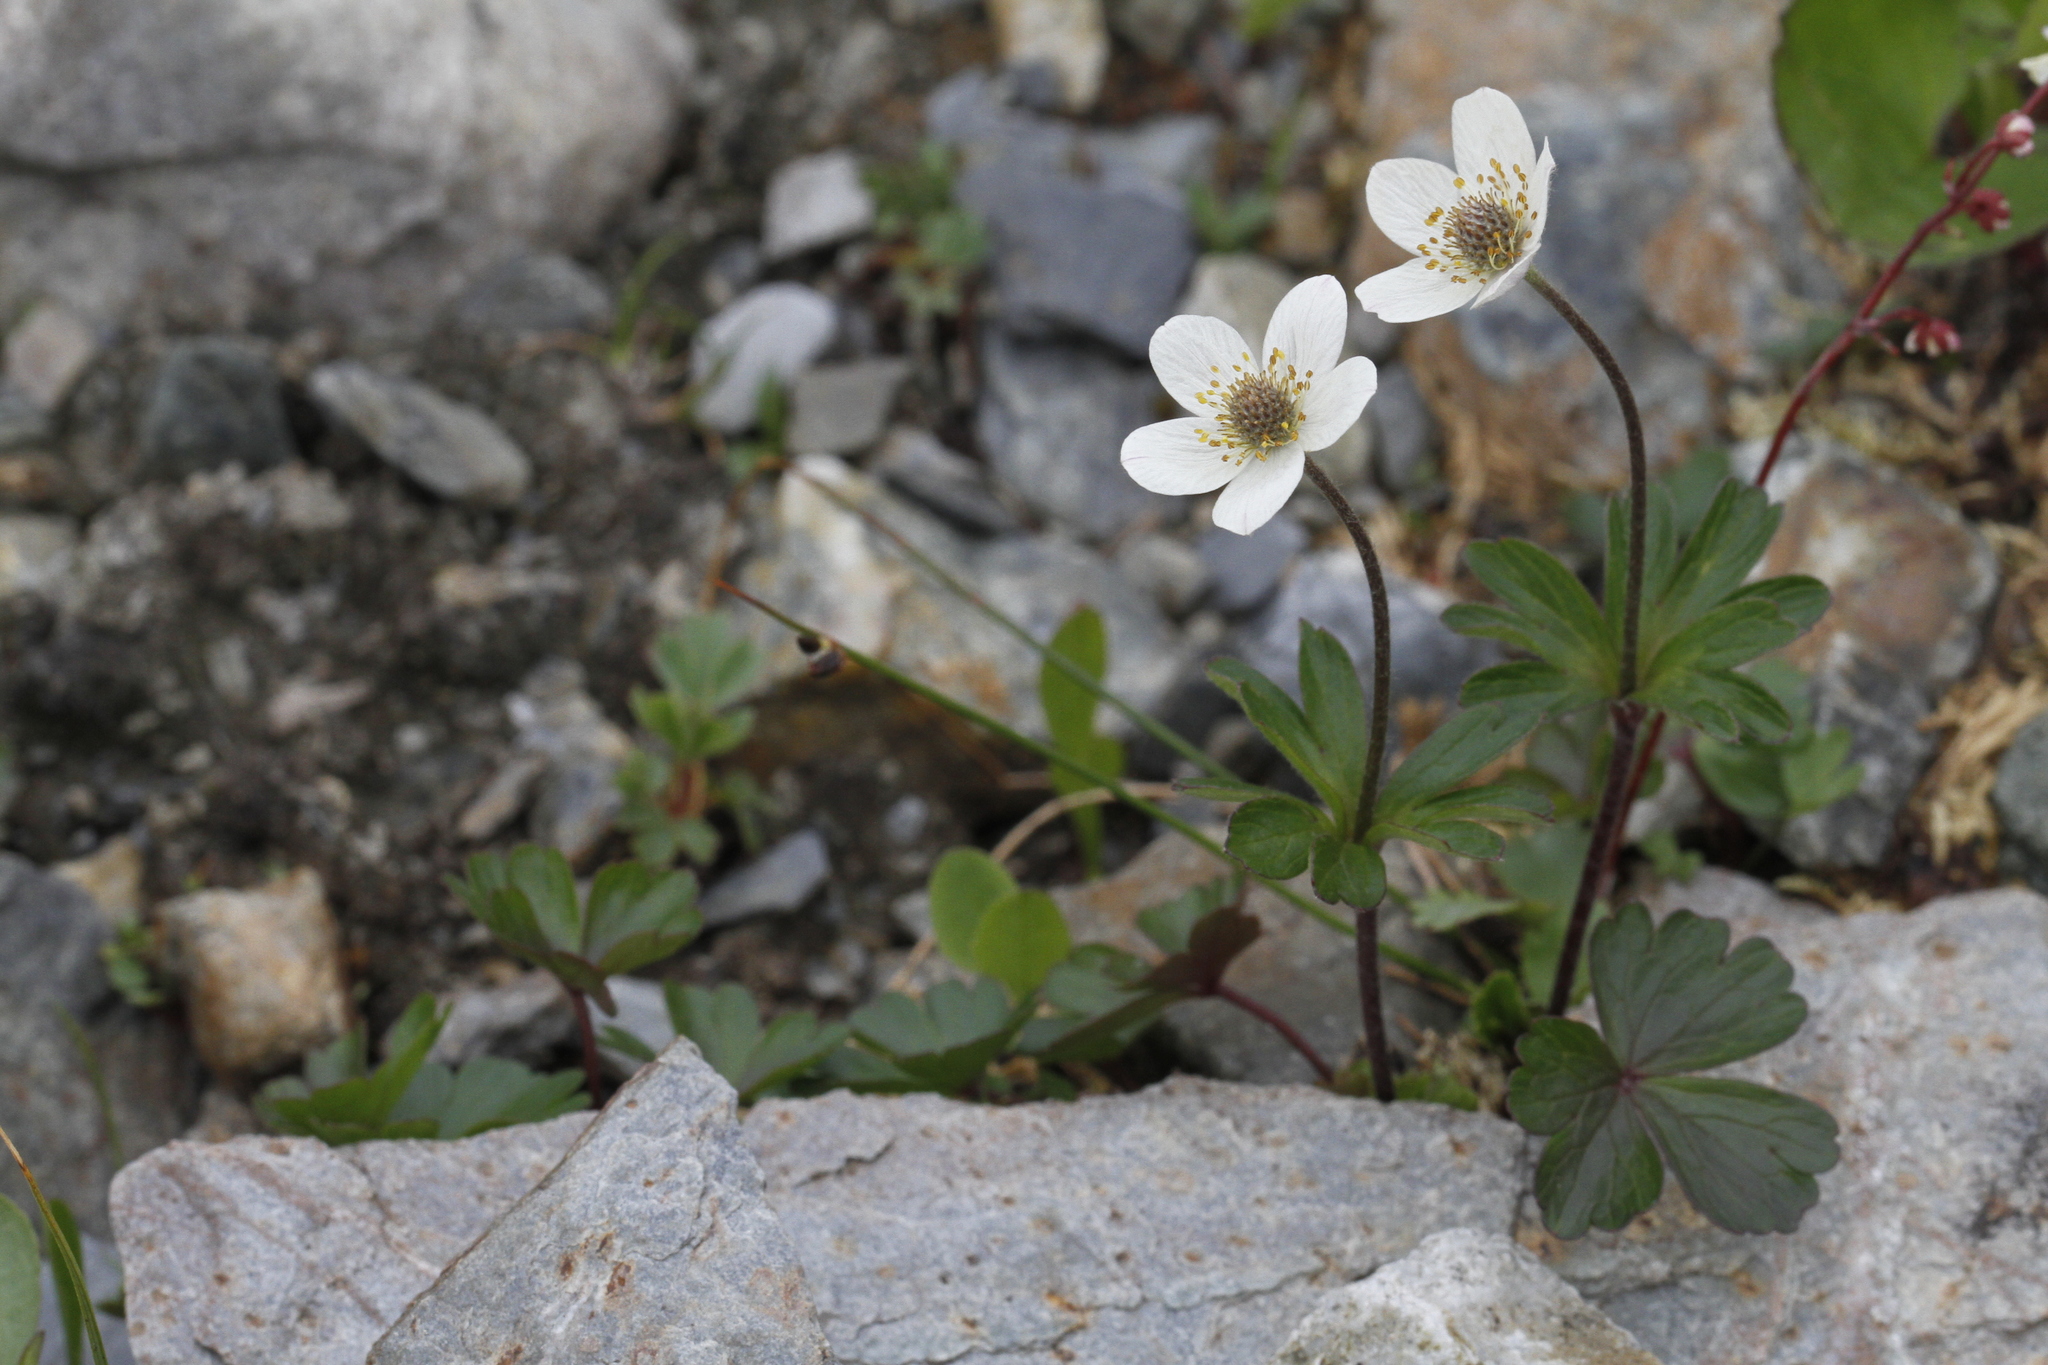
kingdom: Plantae
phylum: Tracheophyta
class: Magnoliopsida
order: Ranunculales
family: Ranunculaceae
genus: Anemone
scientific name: Anemone parviflora
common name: Northern anemone
